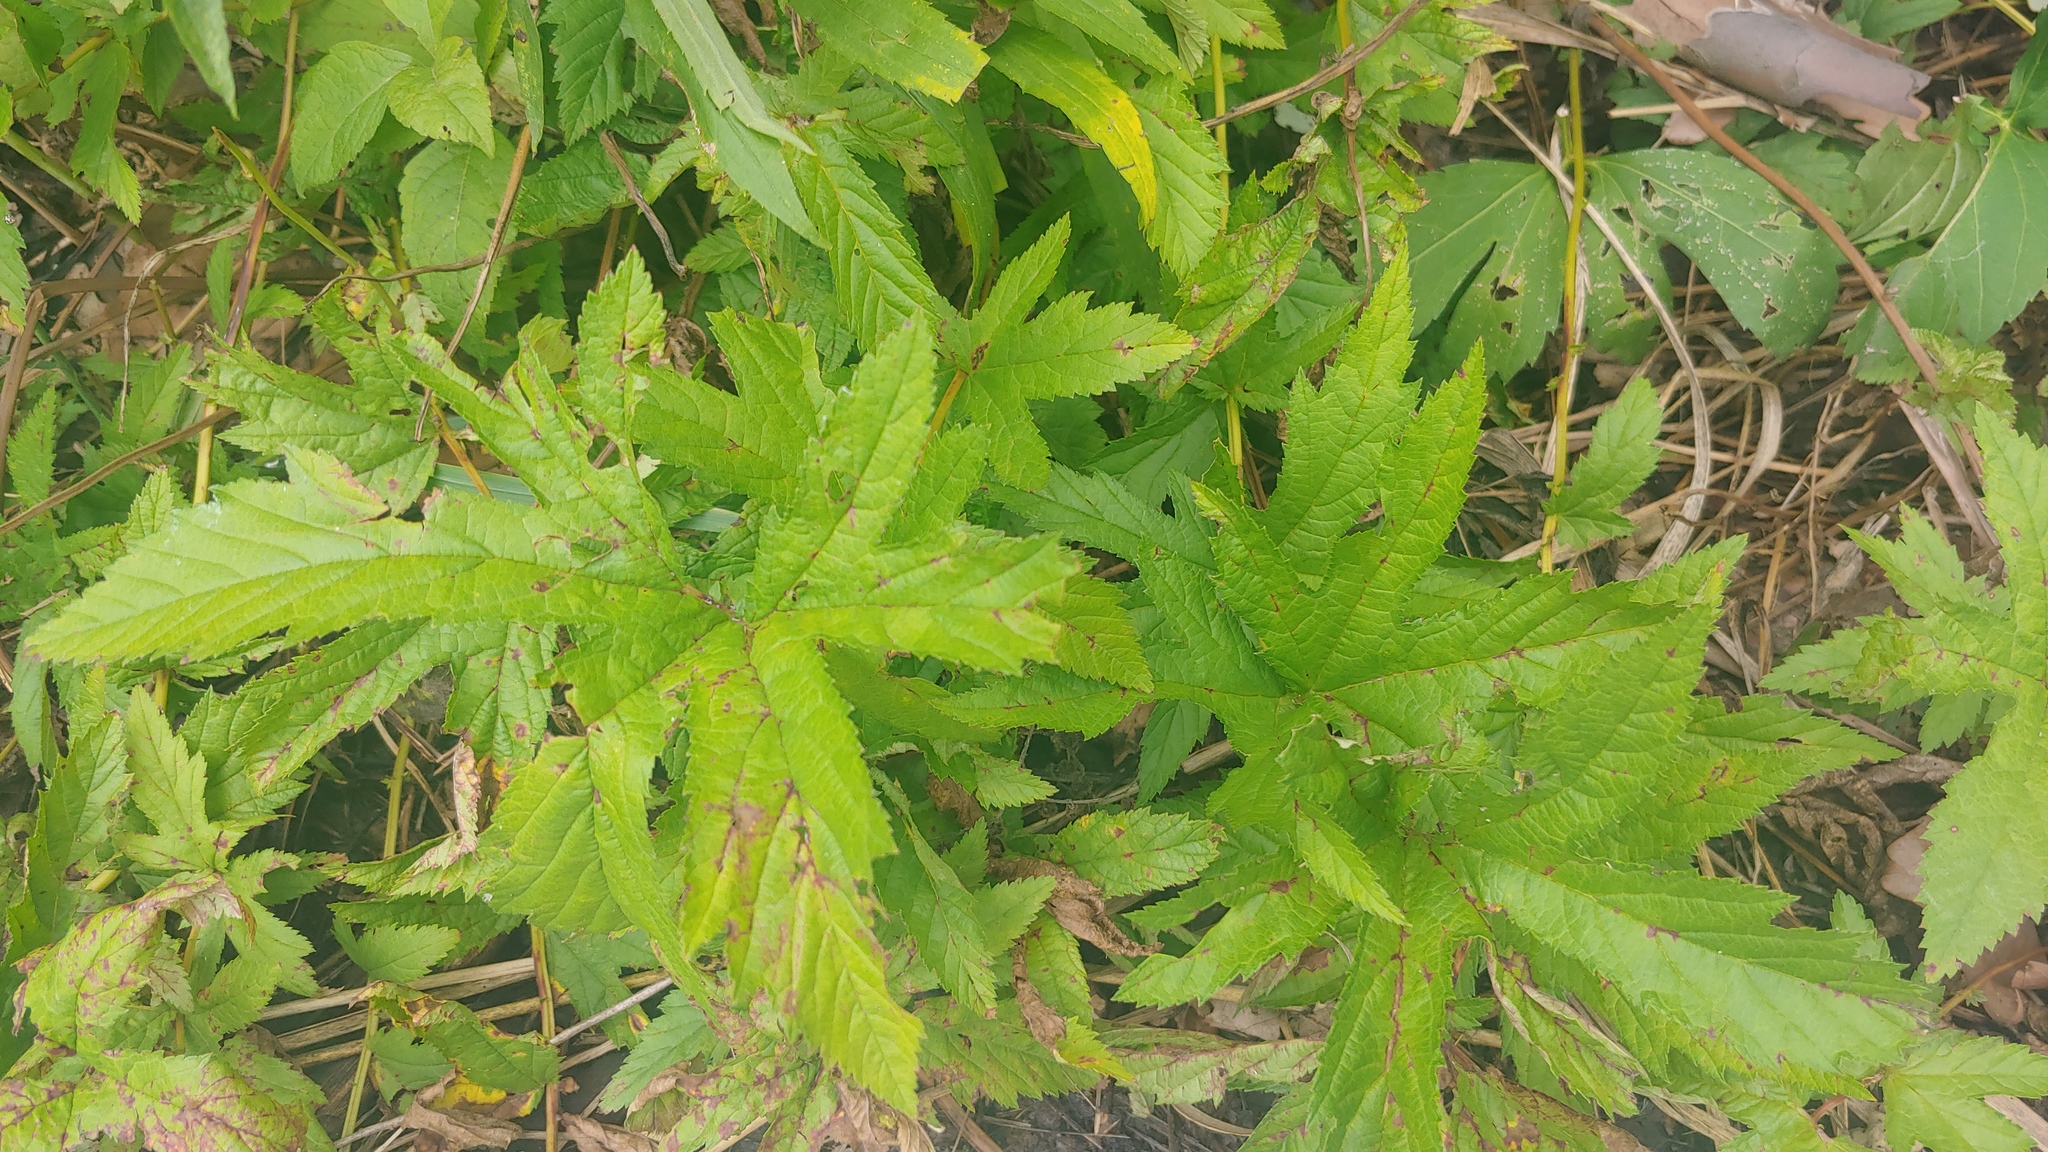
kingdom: Plantae
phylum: Tracheophyta
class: Magnoliopsida
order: Rosales
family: Rosaceae
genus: Filipendula
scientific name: Filipendula rubra
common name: Queen-of-the-prairie
